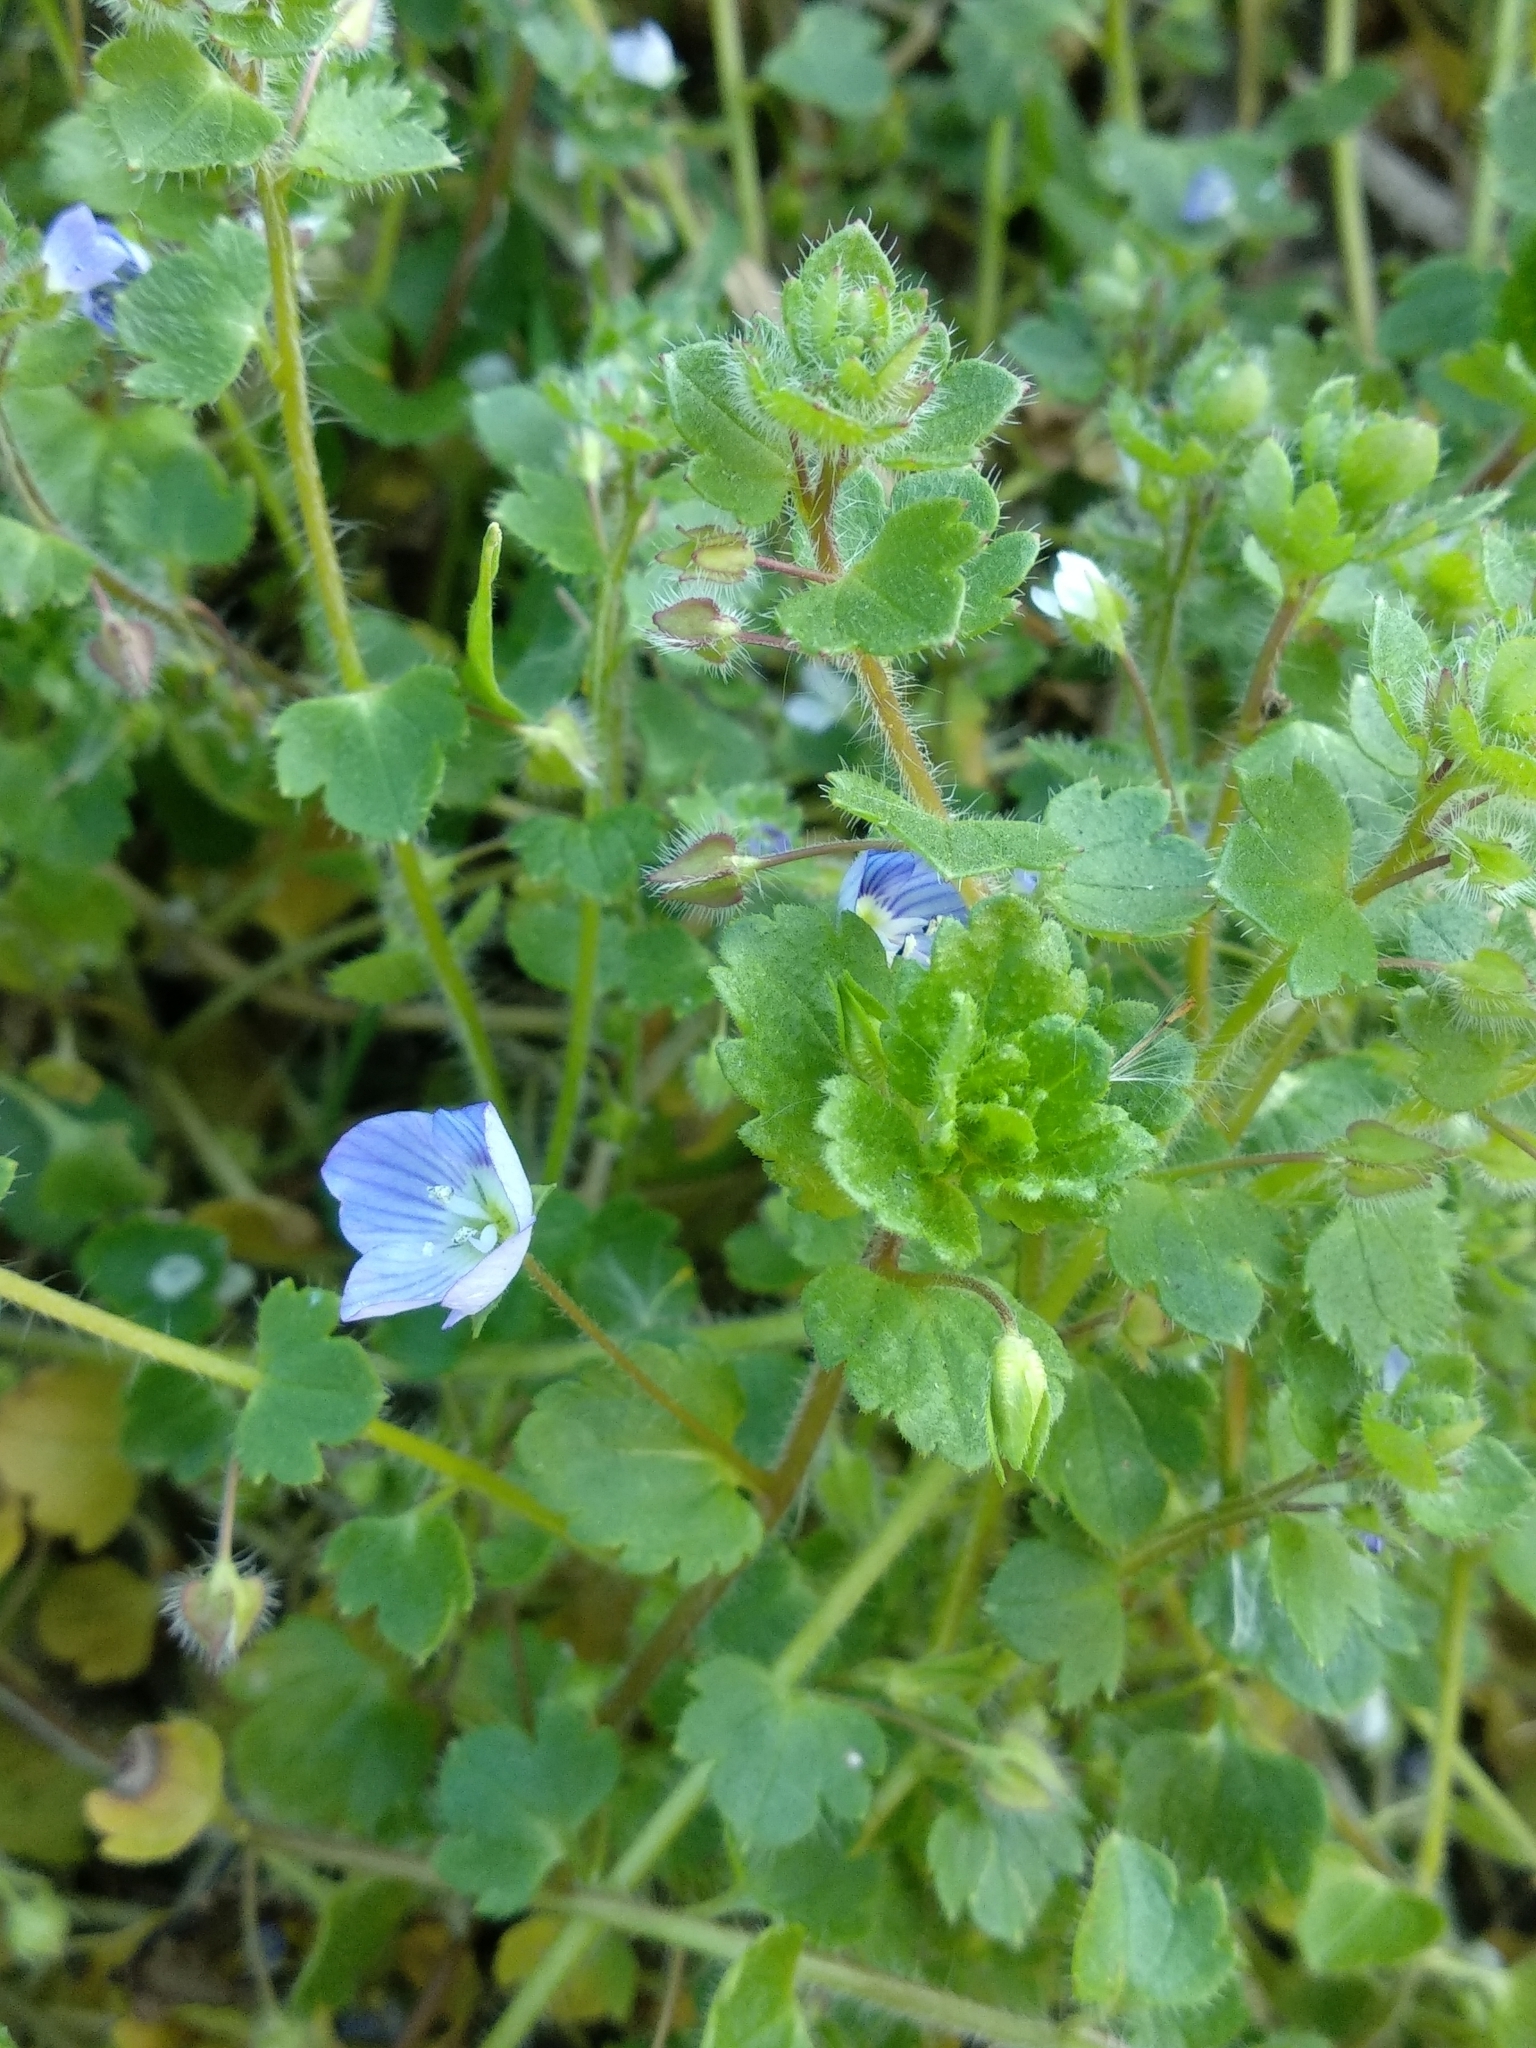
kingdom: Plantae
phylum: Tracheophyta
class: Magnoliopsida
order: Lamiales
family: Plantaginaceae
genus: Veronica
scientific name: Veronica persica
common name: Common field-speedwell
